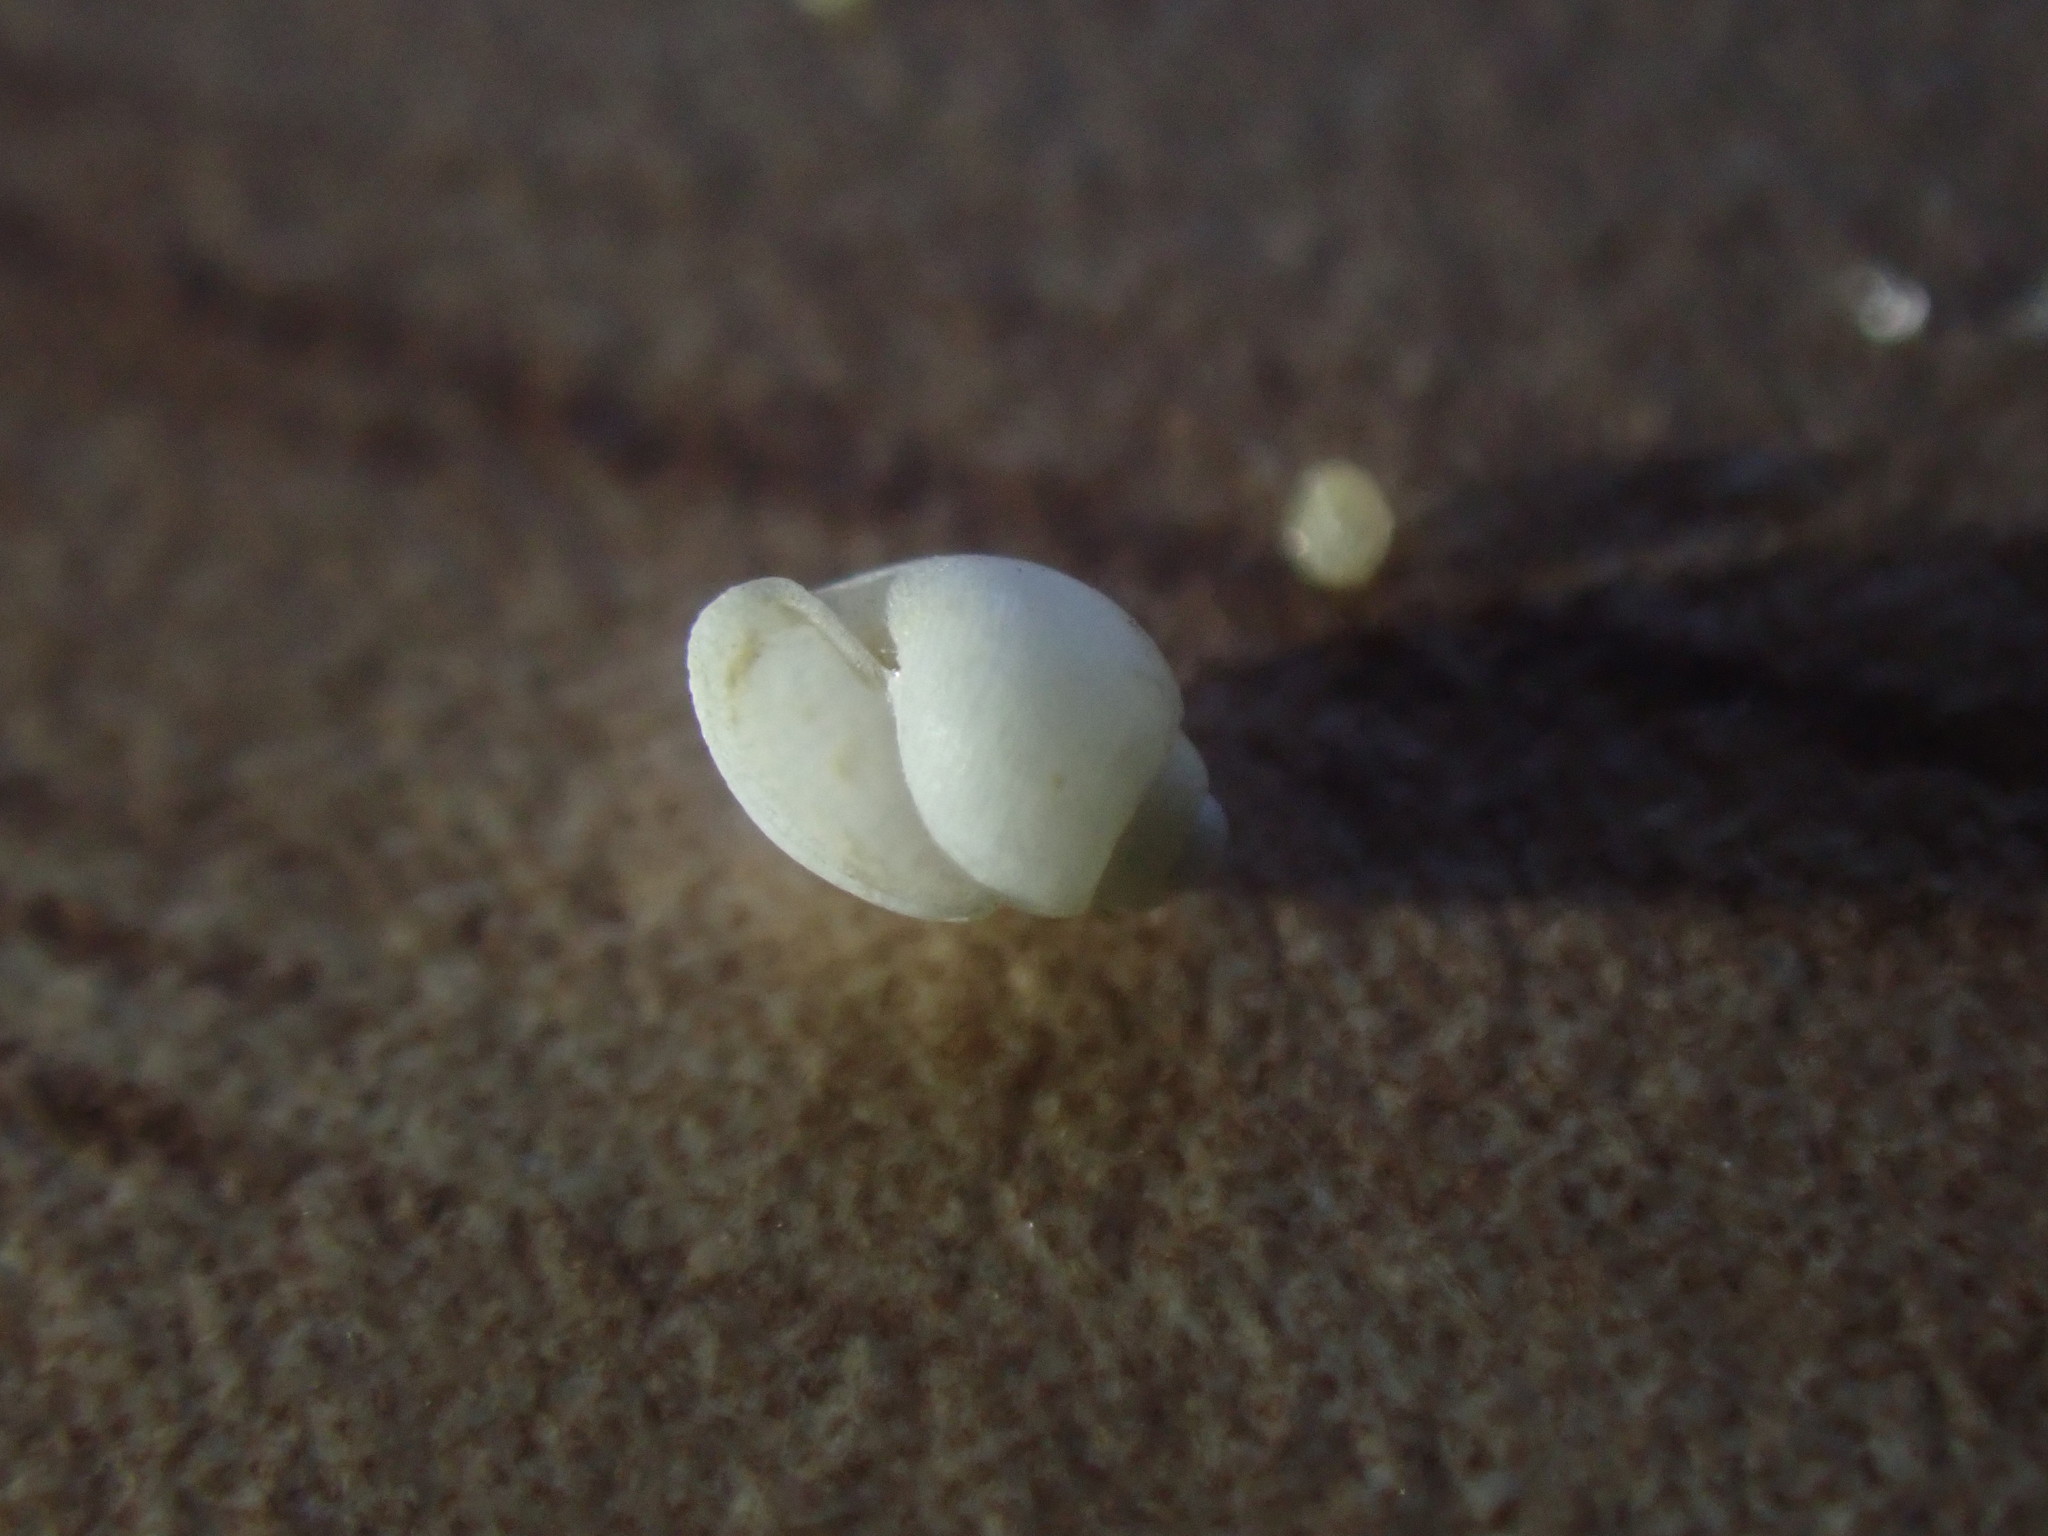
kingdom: Animalia
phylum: Mollusca
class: Gastropoda
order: Cephalaspidea
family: Acteonidae
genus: Punctacteon
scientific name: Punctacteon milleri
